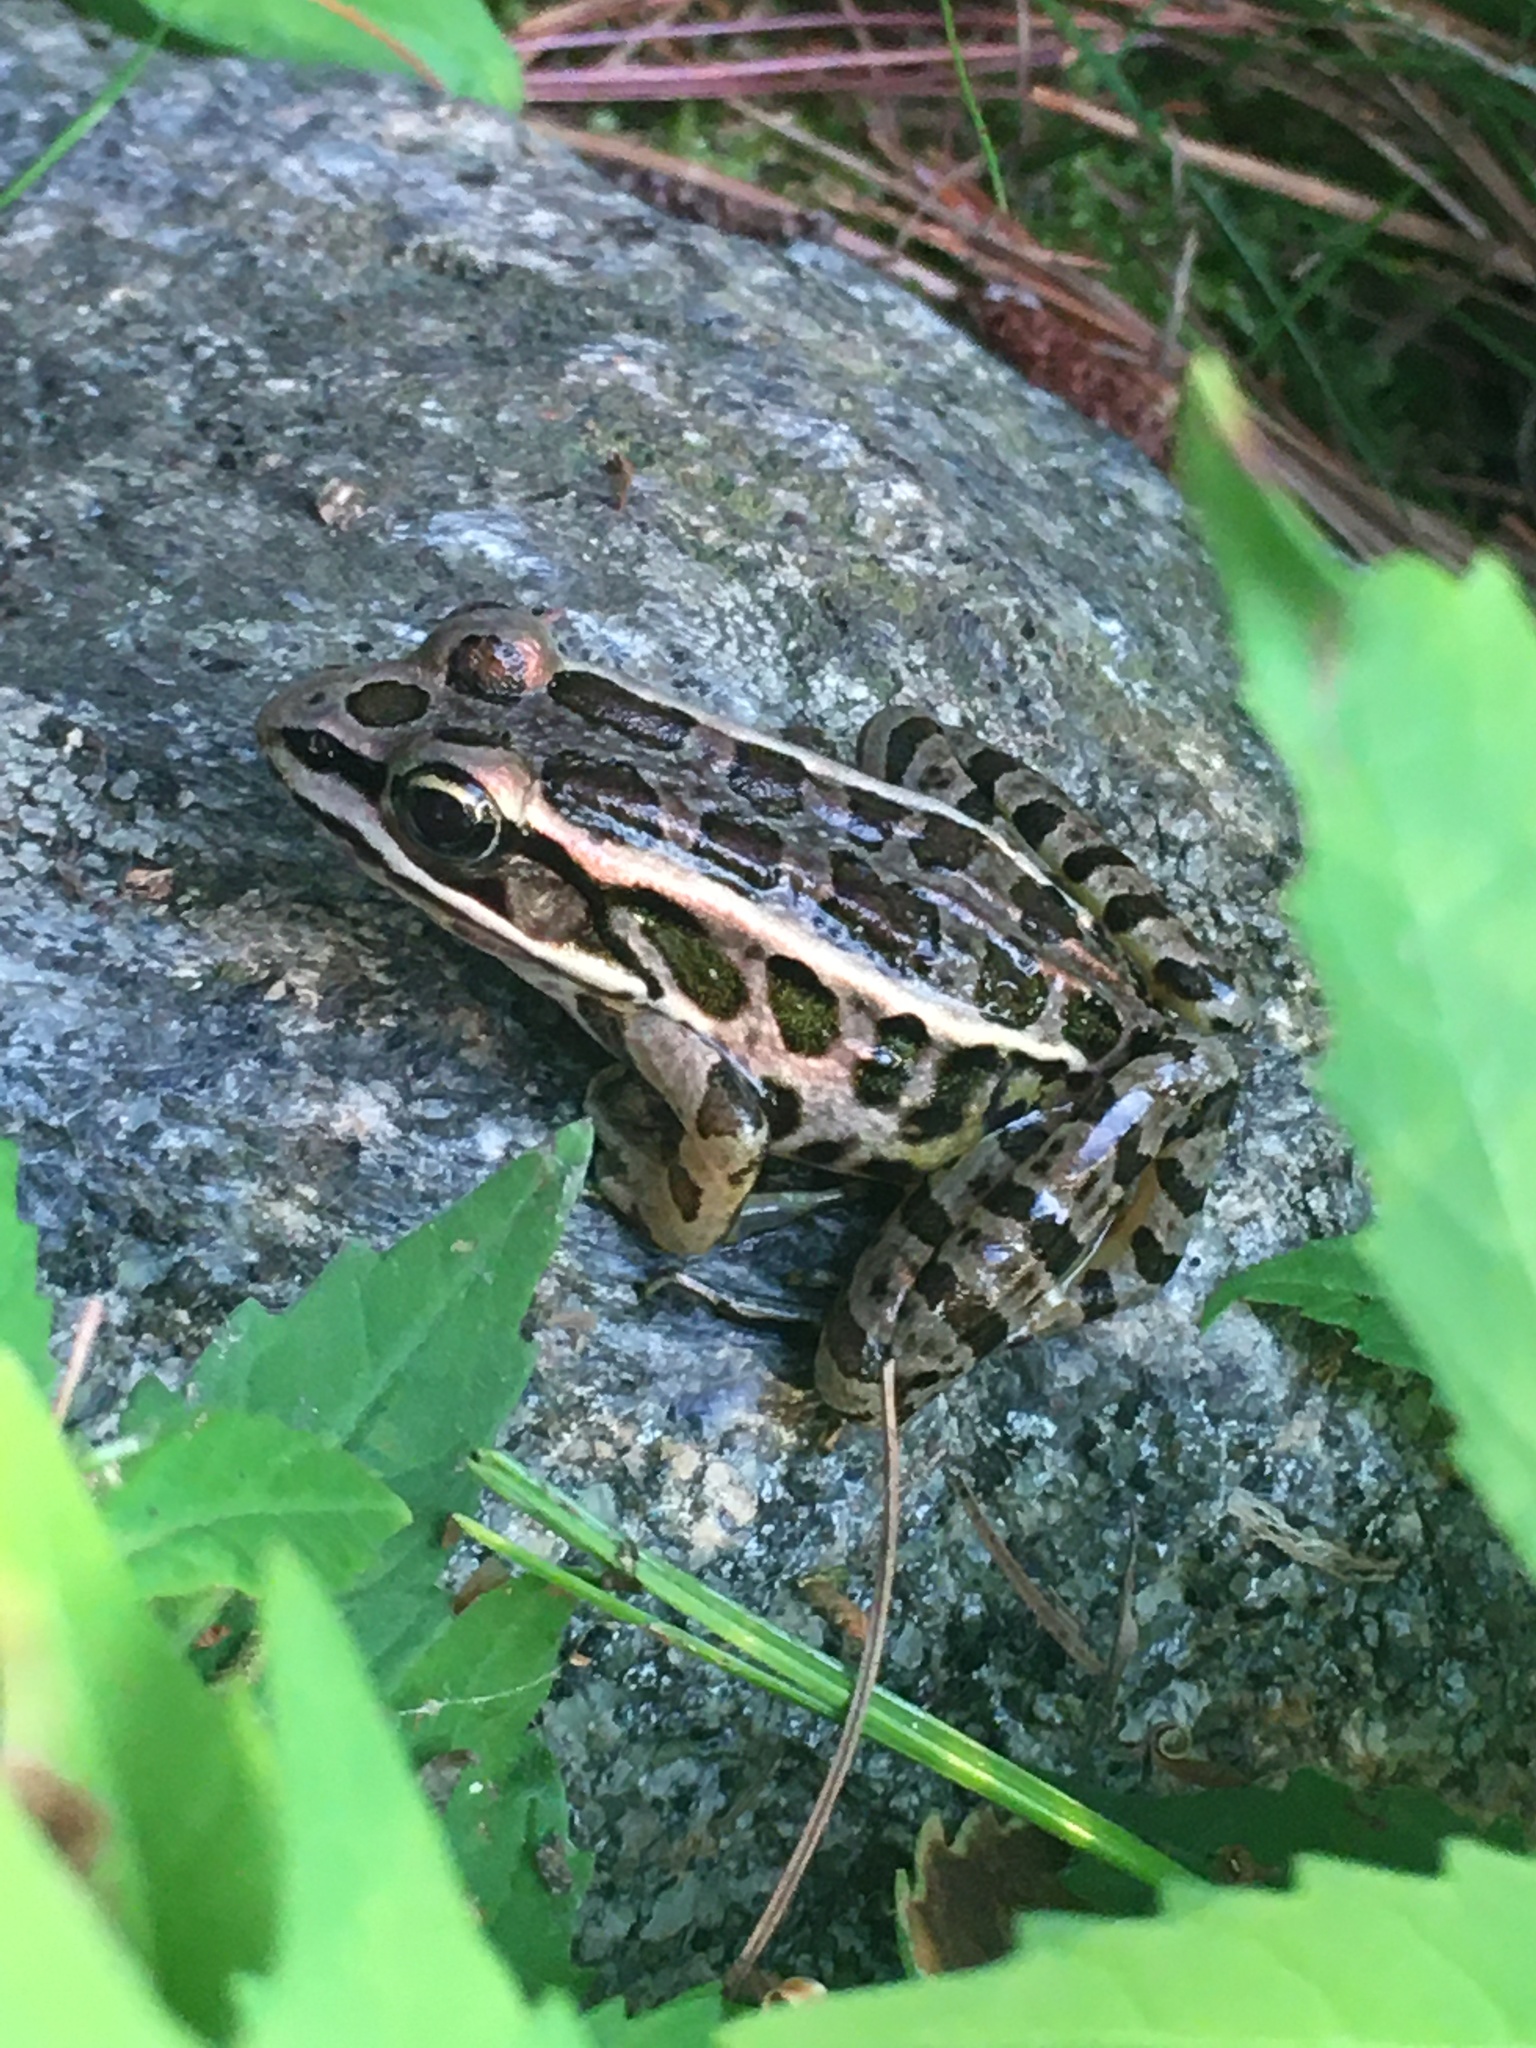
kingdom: Animalia
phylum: Chordata
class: Amphibia
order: Anura
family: Ranidae
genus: Lithobates
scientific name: Lithobates palustris
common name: Pickerel frog
